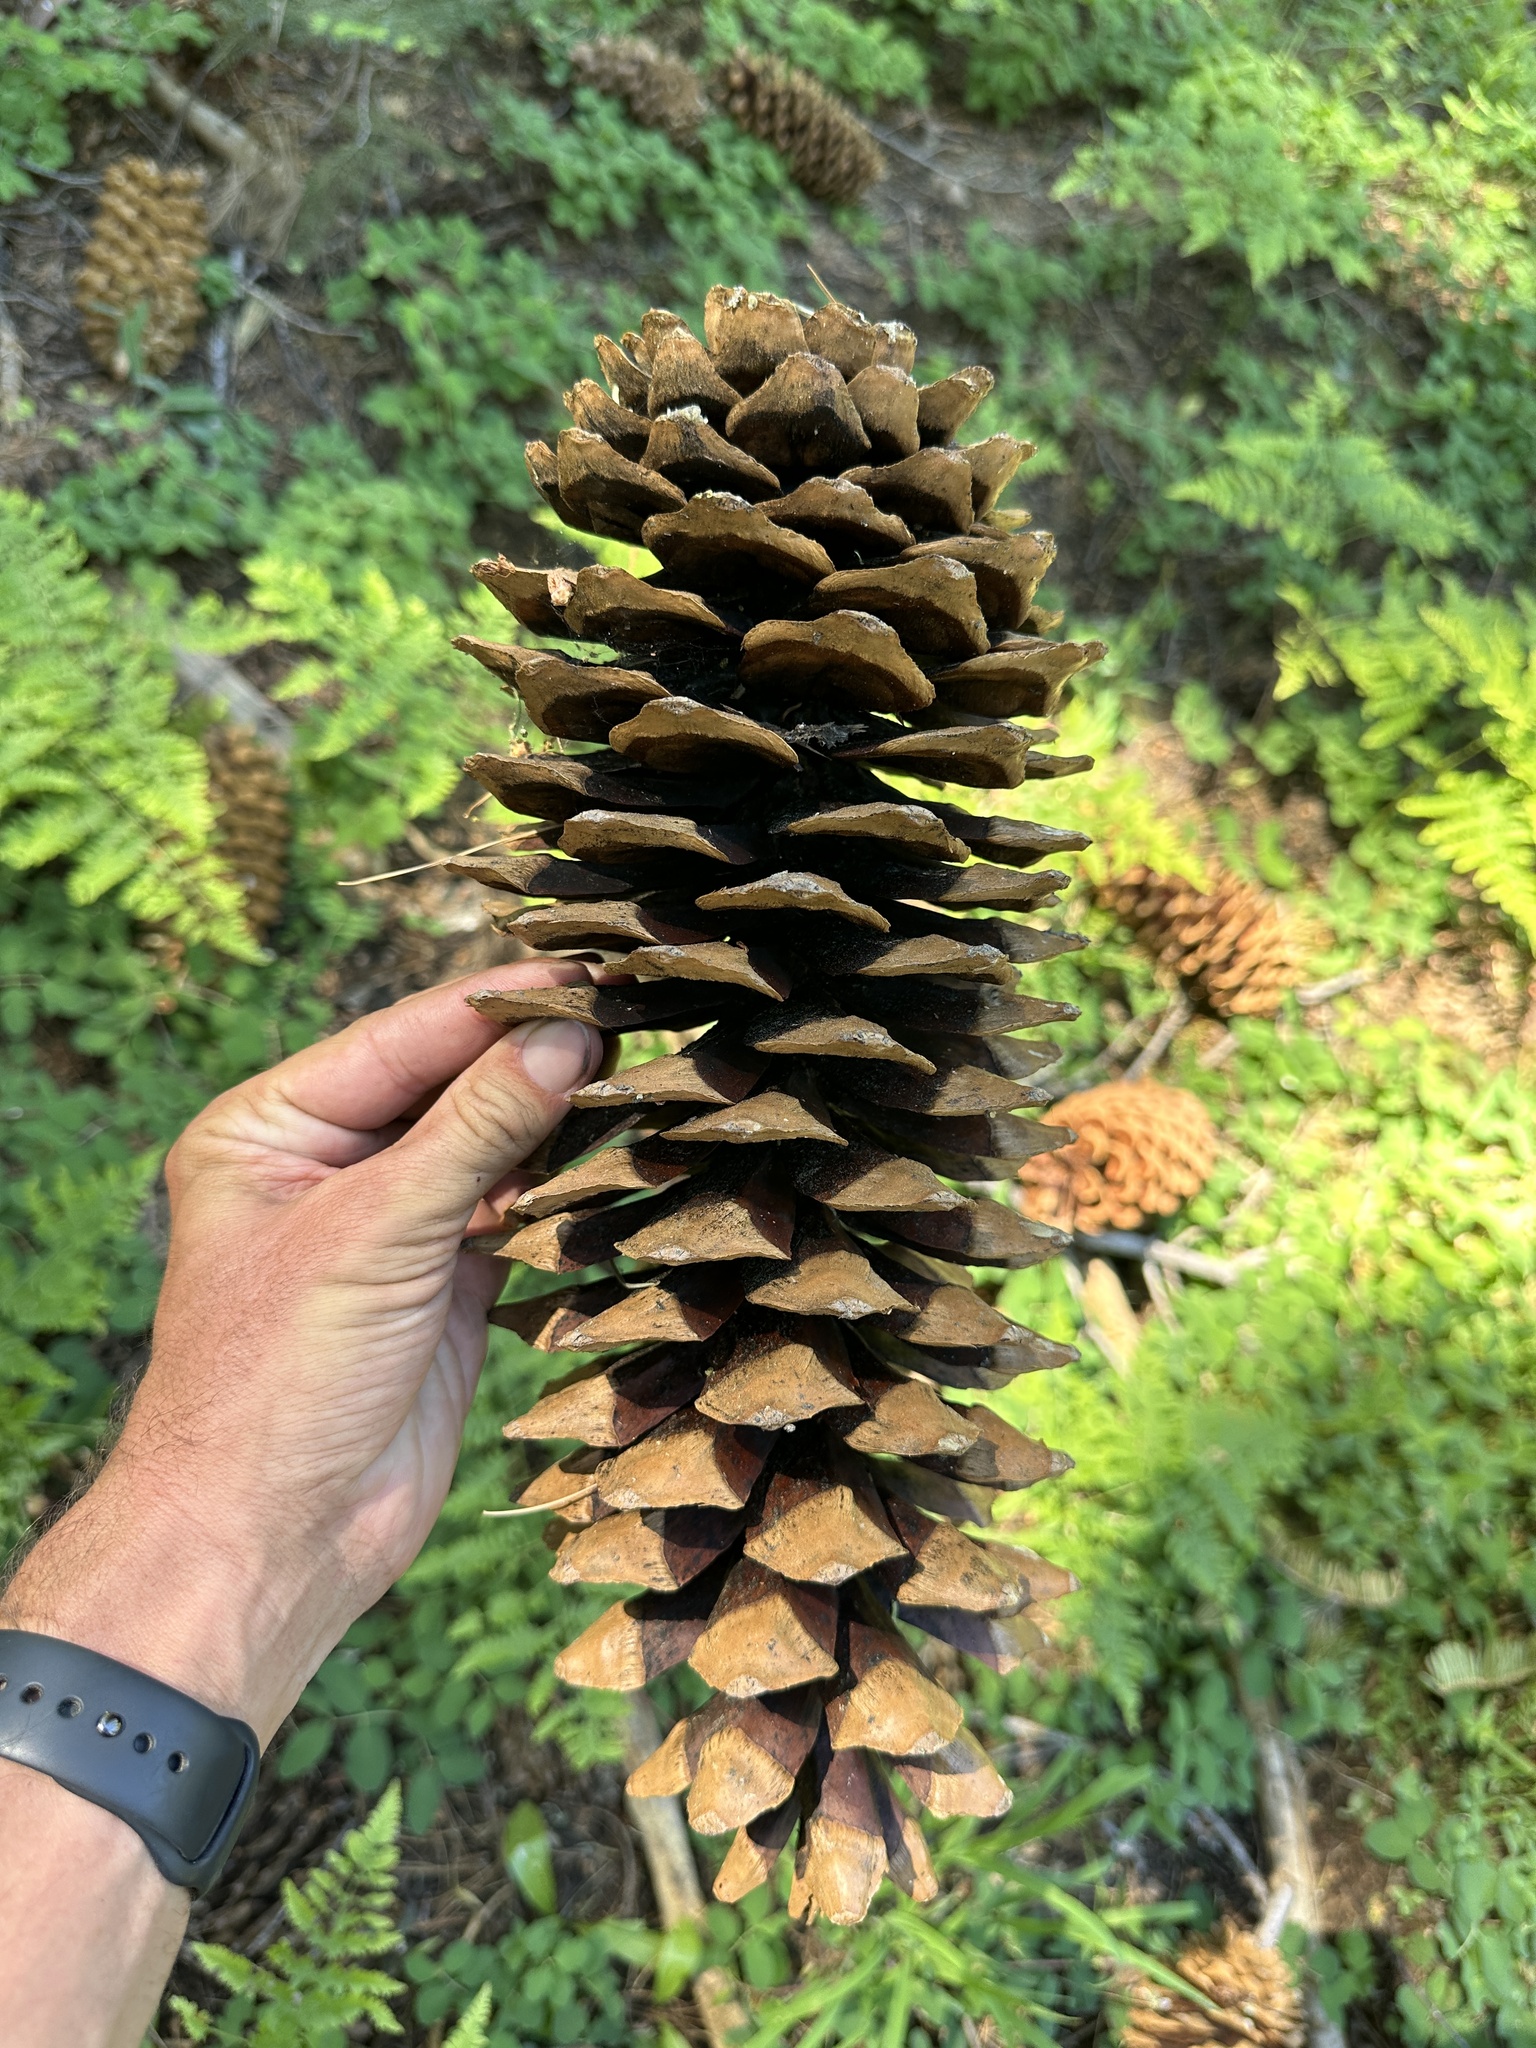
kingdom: Plantae
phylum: Tracheophyta
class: Pinopsida
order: Pinales
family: Pinaceae
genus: Pinus
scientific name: Pinus lambertiana
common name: Sugar pine
